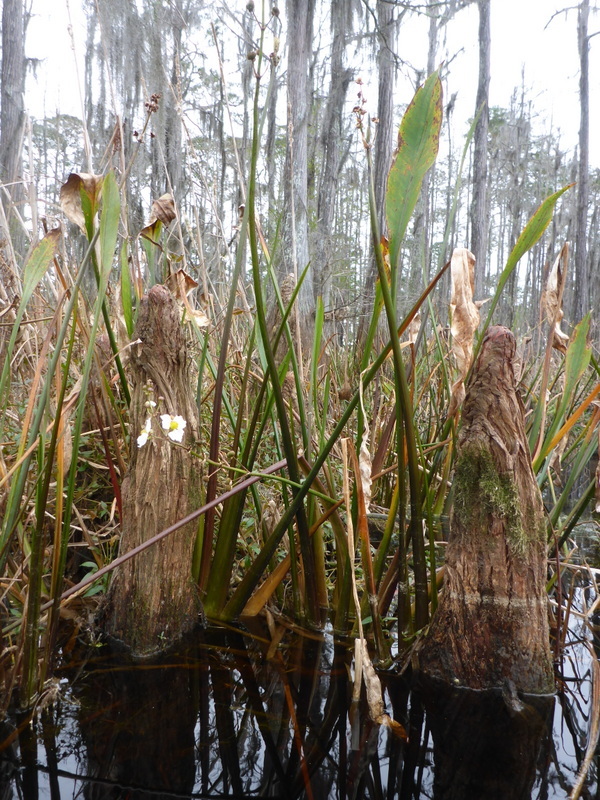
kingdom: Plantae
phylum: Tracheophyta
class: Liliopsida
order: Alismatales
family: Alismataceae
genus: Sagittaria
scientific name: Sagittaria lancifolia
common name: Lance-leaf arrowhead
